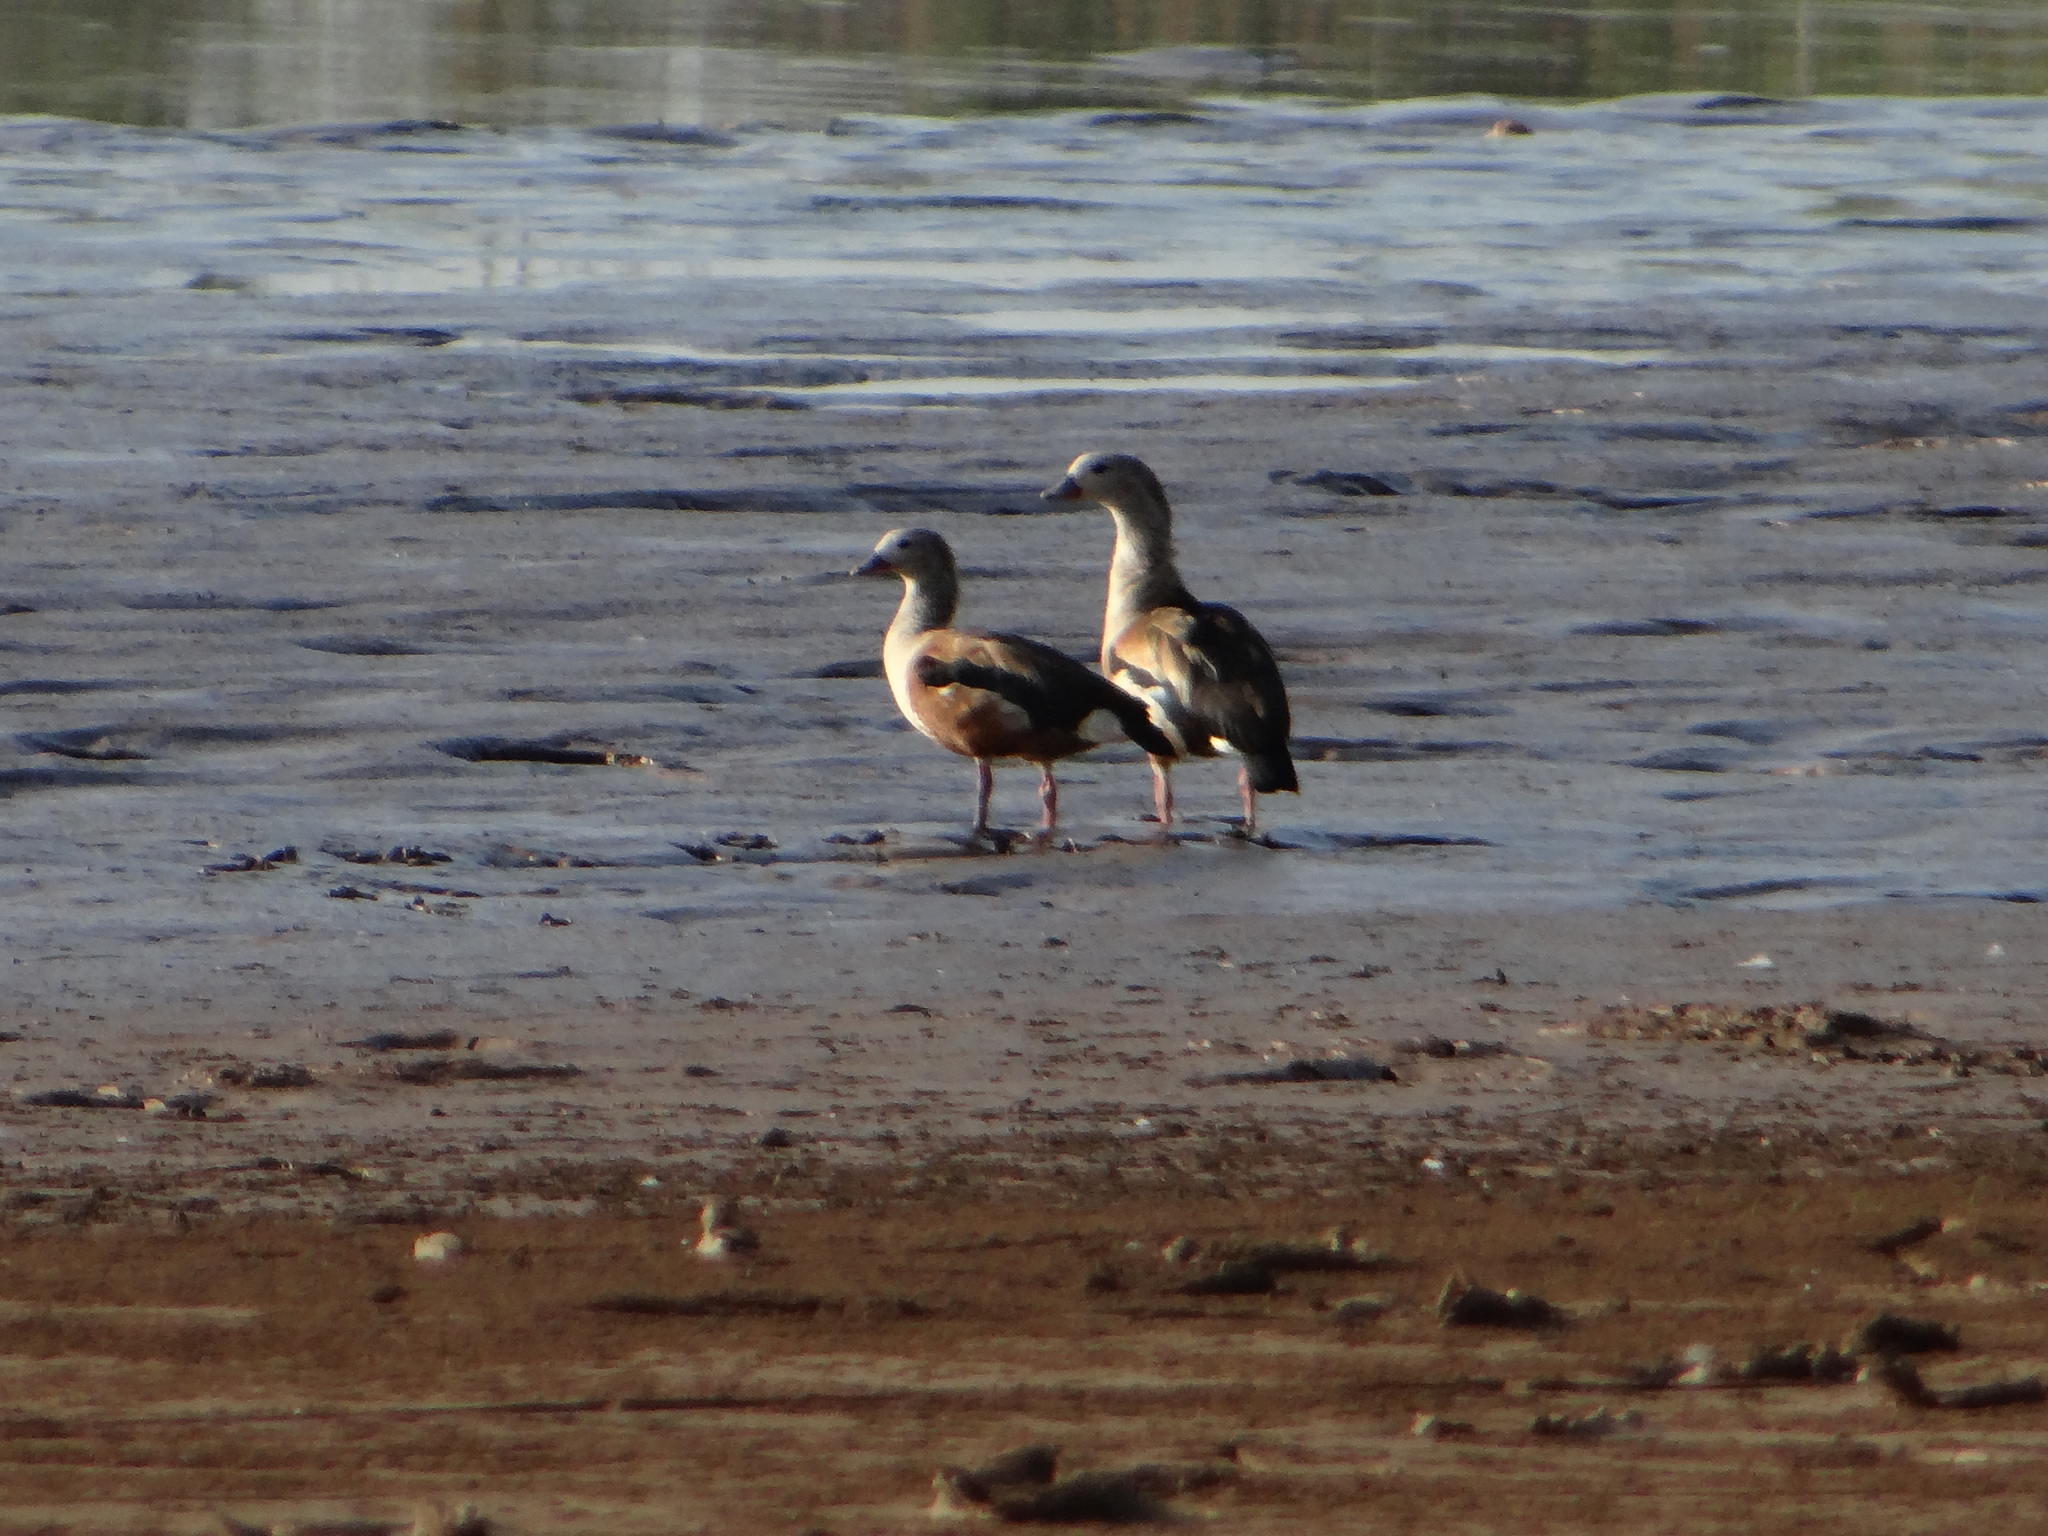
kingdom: Animalia
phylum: Chordata
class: Aves
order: Anseriformes
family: Anatidae
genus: Oressochen
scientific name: Oressochen jubatus
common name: Orinoco goose
